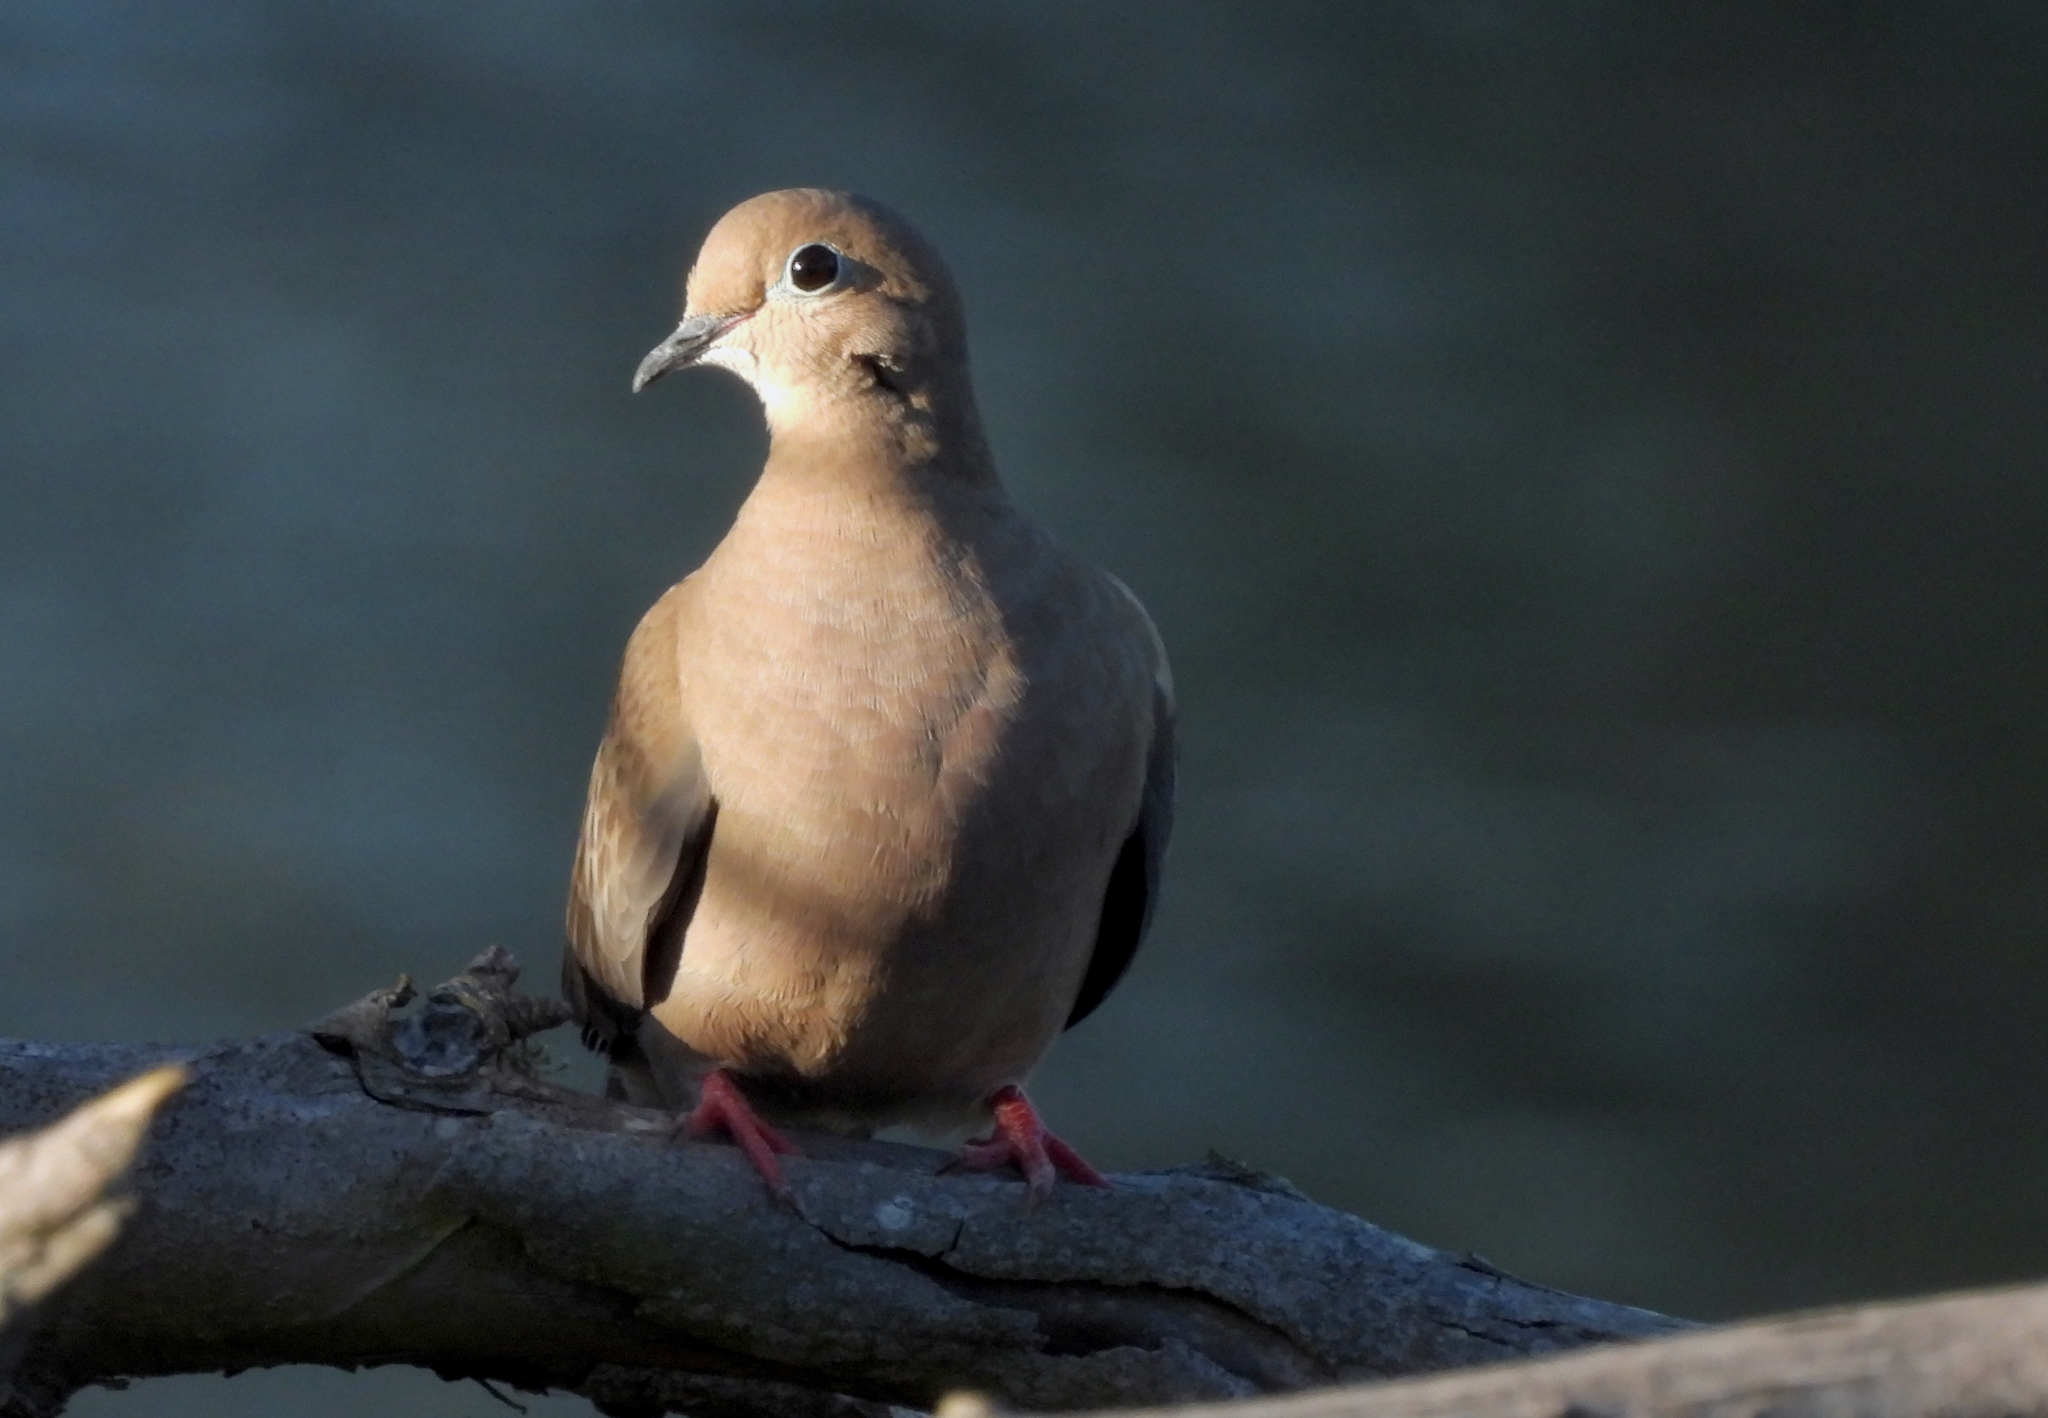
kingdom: Animalia
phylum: Chordata
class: Aves
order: Columbiformes
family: Columbidae
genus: Zenaida
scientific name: Zenaida macroura
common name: Mourning dove
